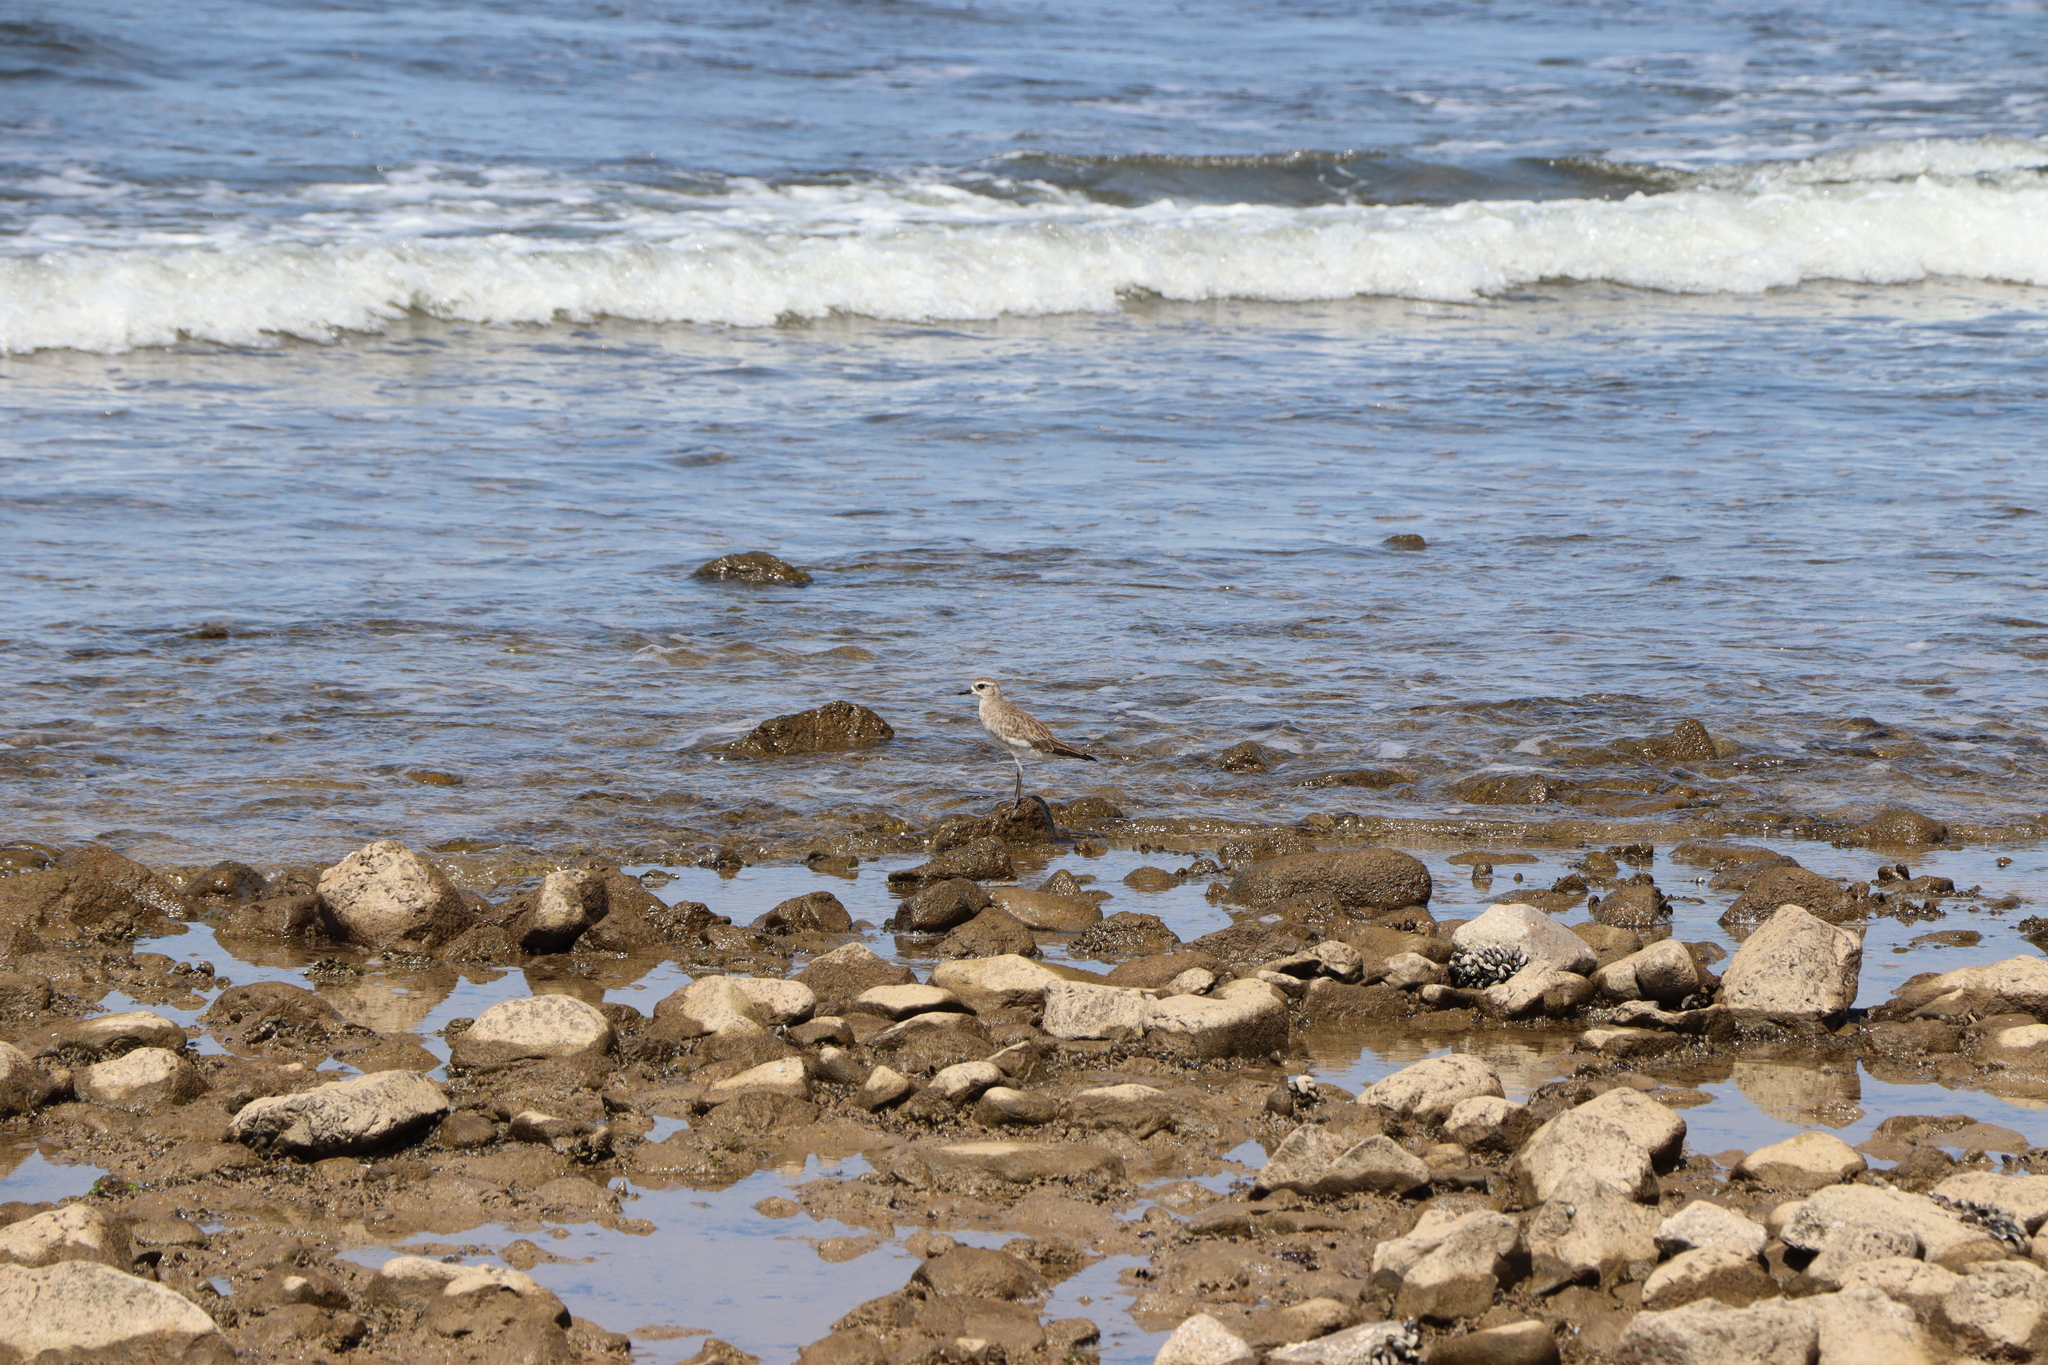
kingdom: Animalia
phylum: Chordata
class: Aves
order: Charadriiformes
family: Charadriidae
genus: Pluvialis
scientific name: Pluvialis dominica
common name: American golden plover
